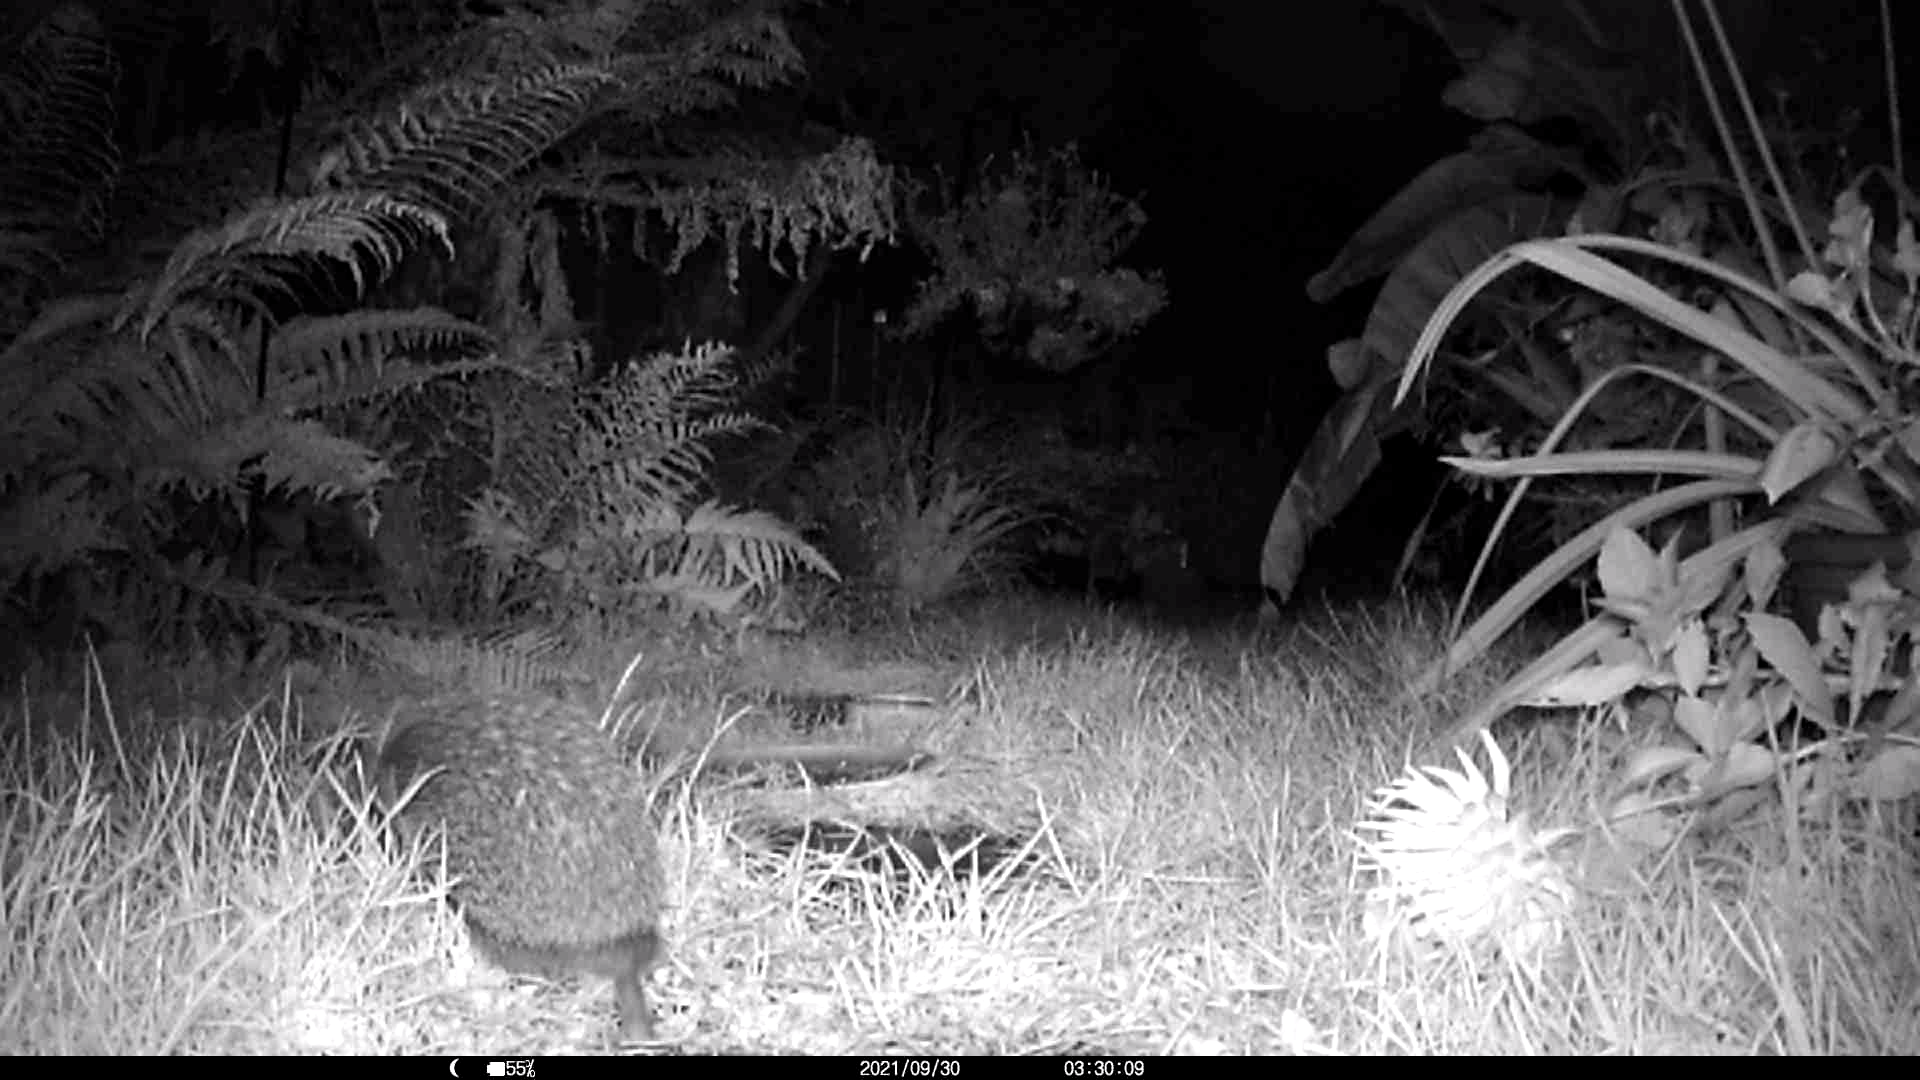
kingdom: Animalia
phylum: Chordata
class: Mammalia
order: Erinaceomorpha
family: Erinaceidae
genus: Erinaceus
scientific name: Erinaceus europaeus
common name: West european hedgehog
